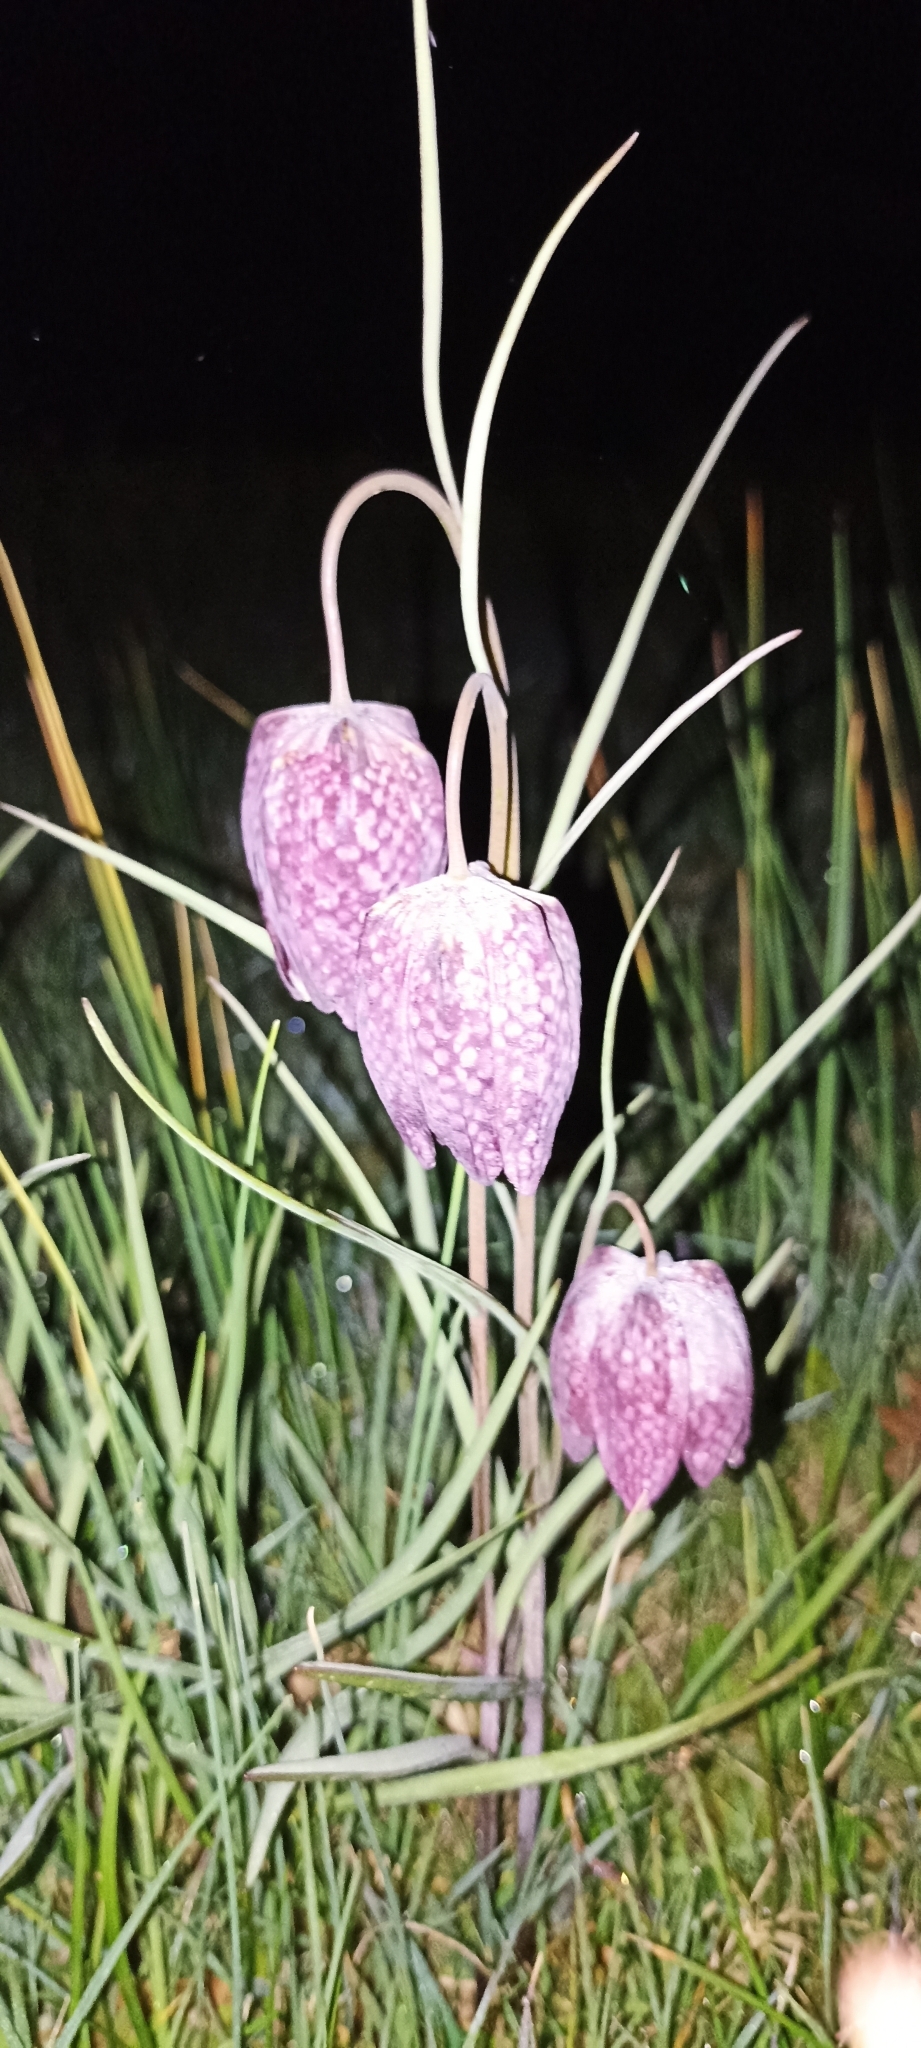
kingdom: Plantae
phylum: Tracheophyta
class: Liliopsida
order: Liliales
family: Liliaceae
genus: Fritillaria
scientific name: Fritillaria meleagris
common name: Fritillary
